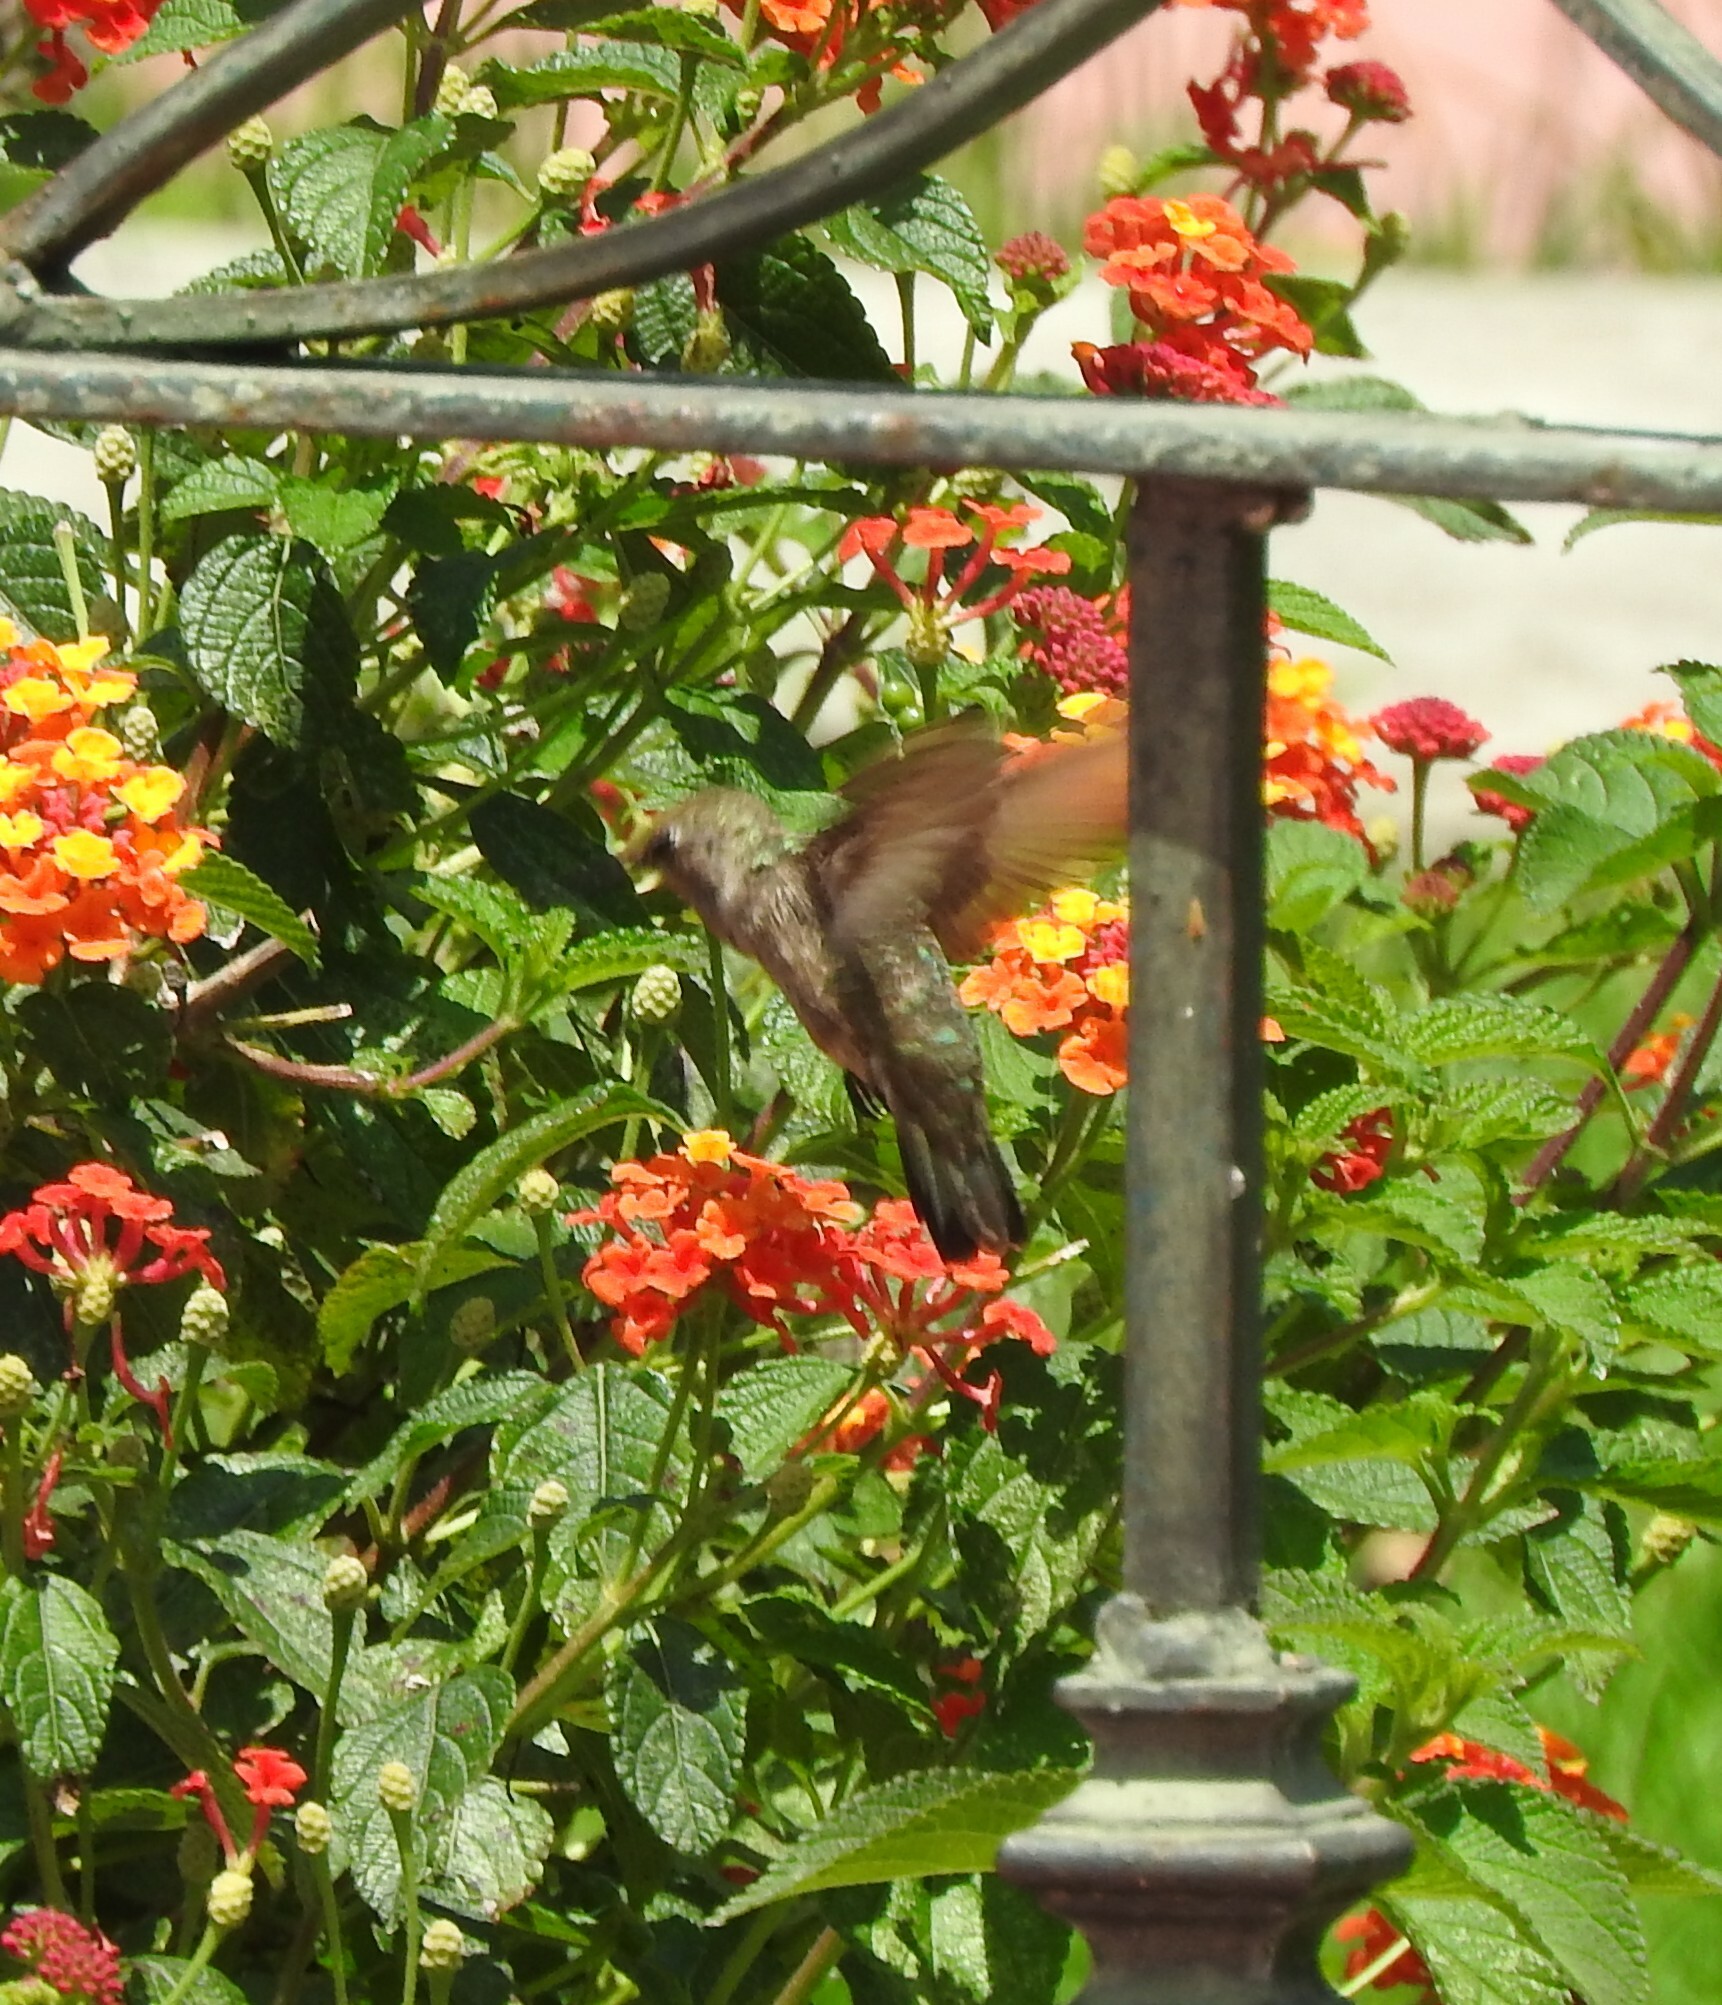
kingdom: Animalia
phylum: Chordata
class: Aves
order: Apodiformes
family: Trochilidae
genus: Cynanthus
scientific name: Cynanthus latirostris
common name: Broad-billed hummingbird
